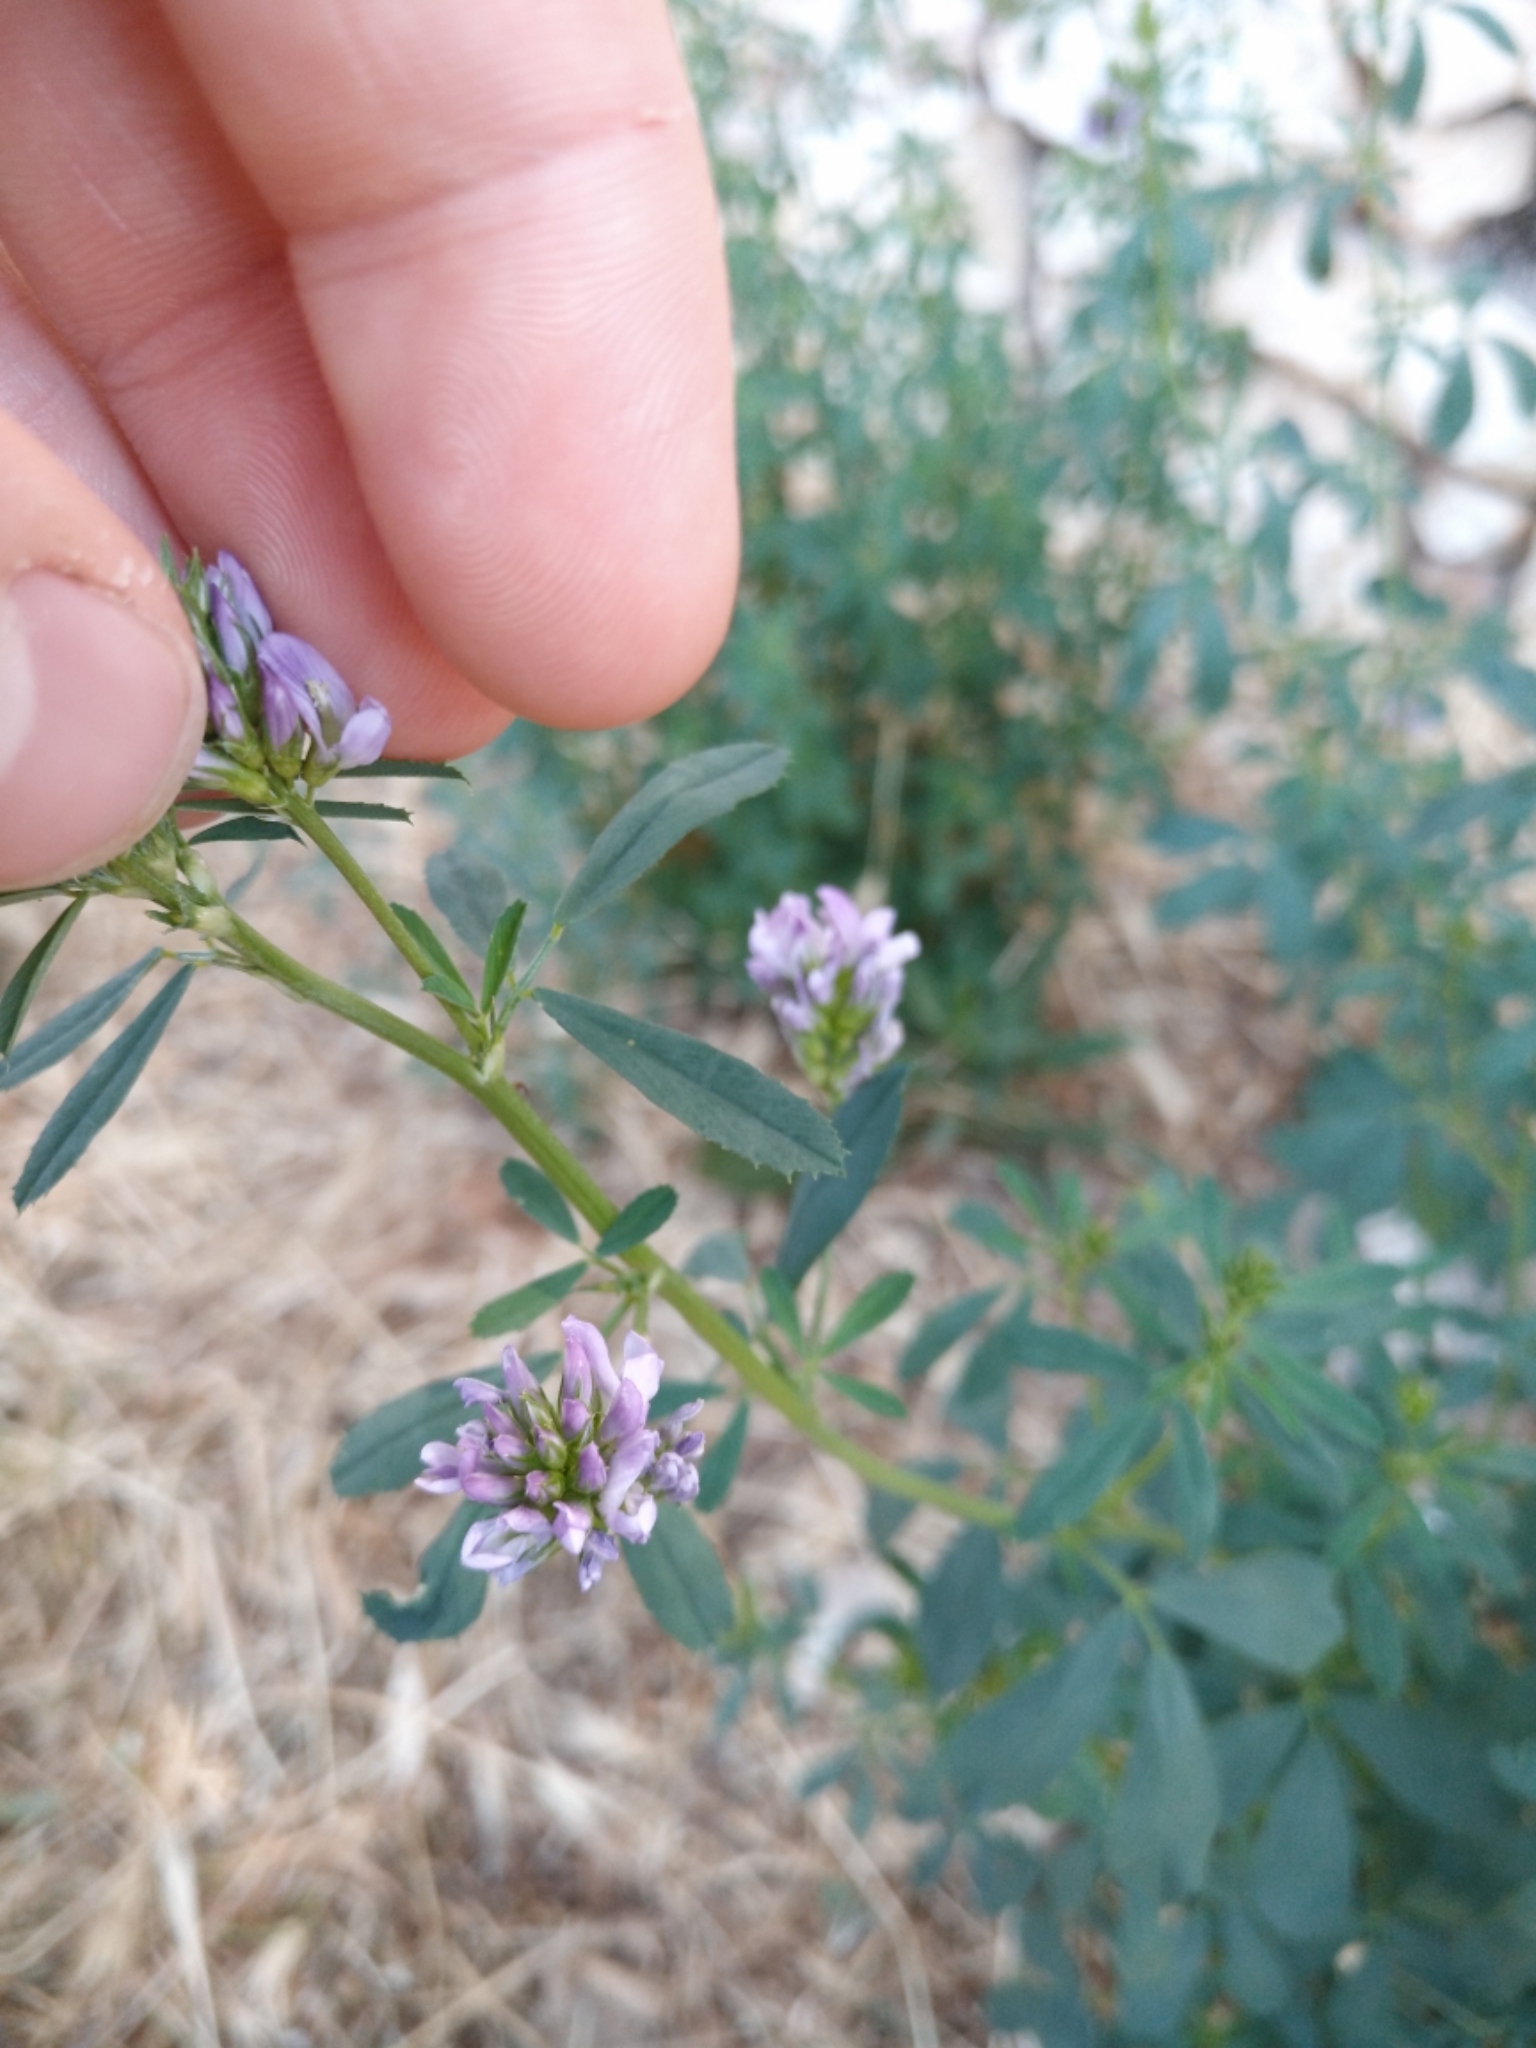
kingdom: Plantae
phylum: Tracheophyta
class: Magnoliopsida
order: Fabales
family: Fabaceae
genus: Medicago
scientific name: Medicago sativa
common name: Alfalfa
